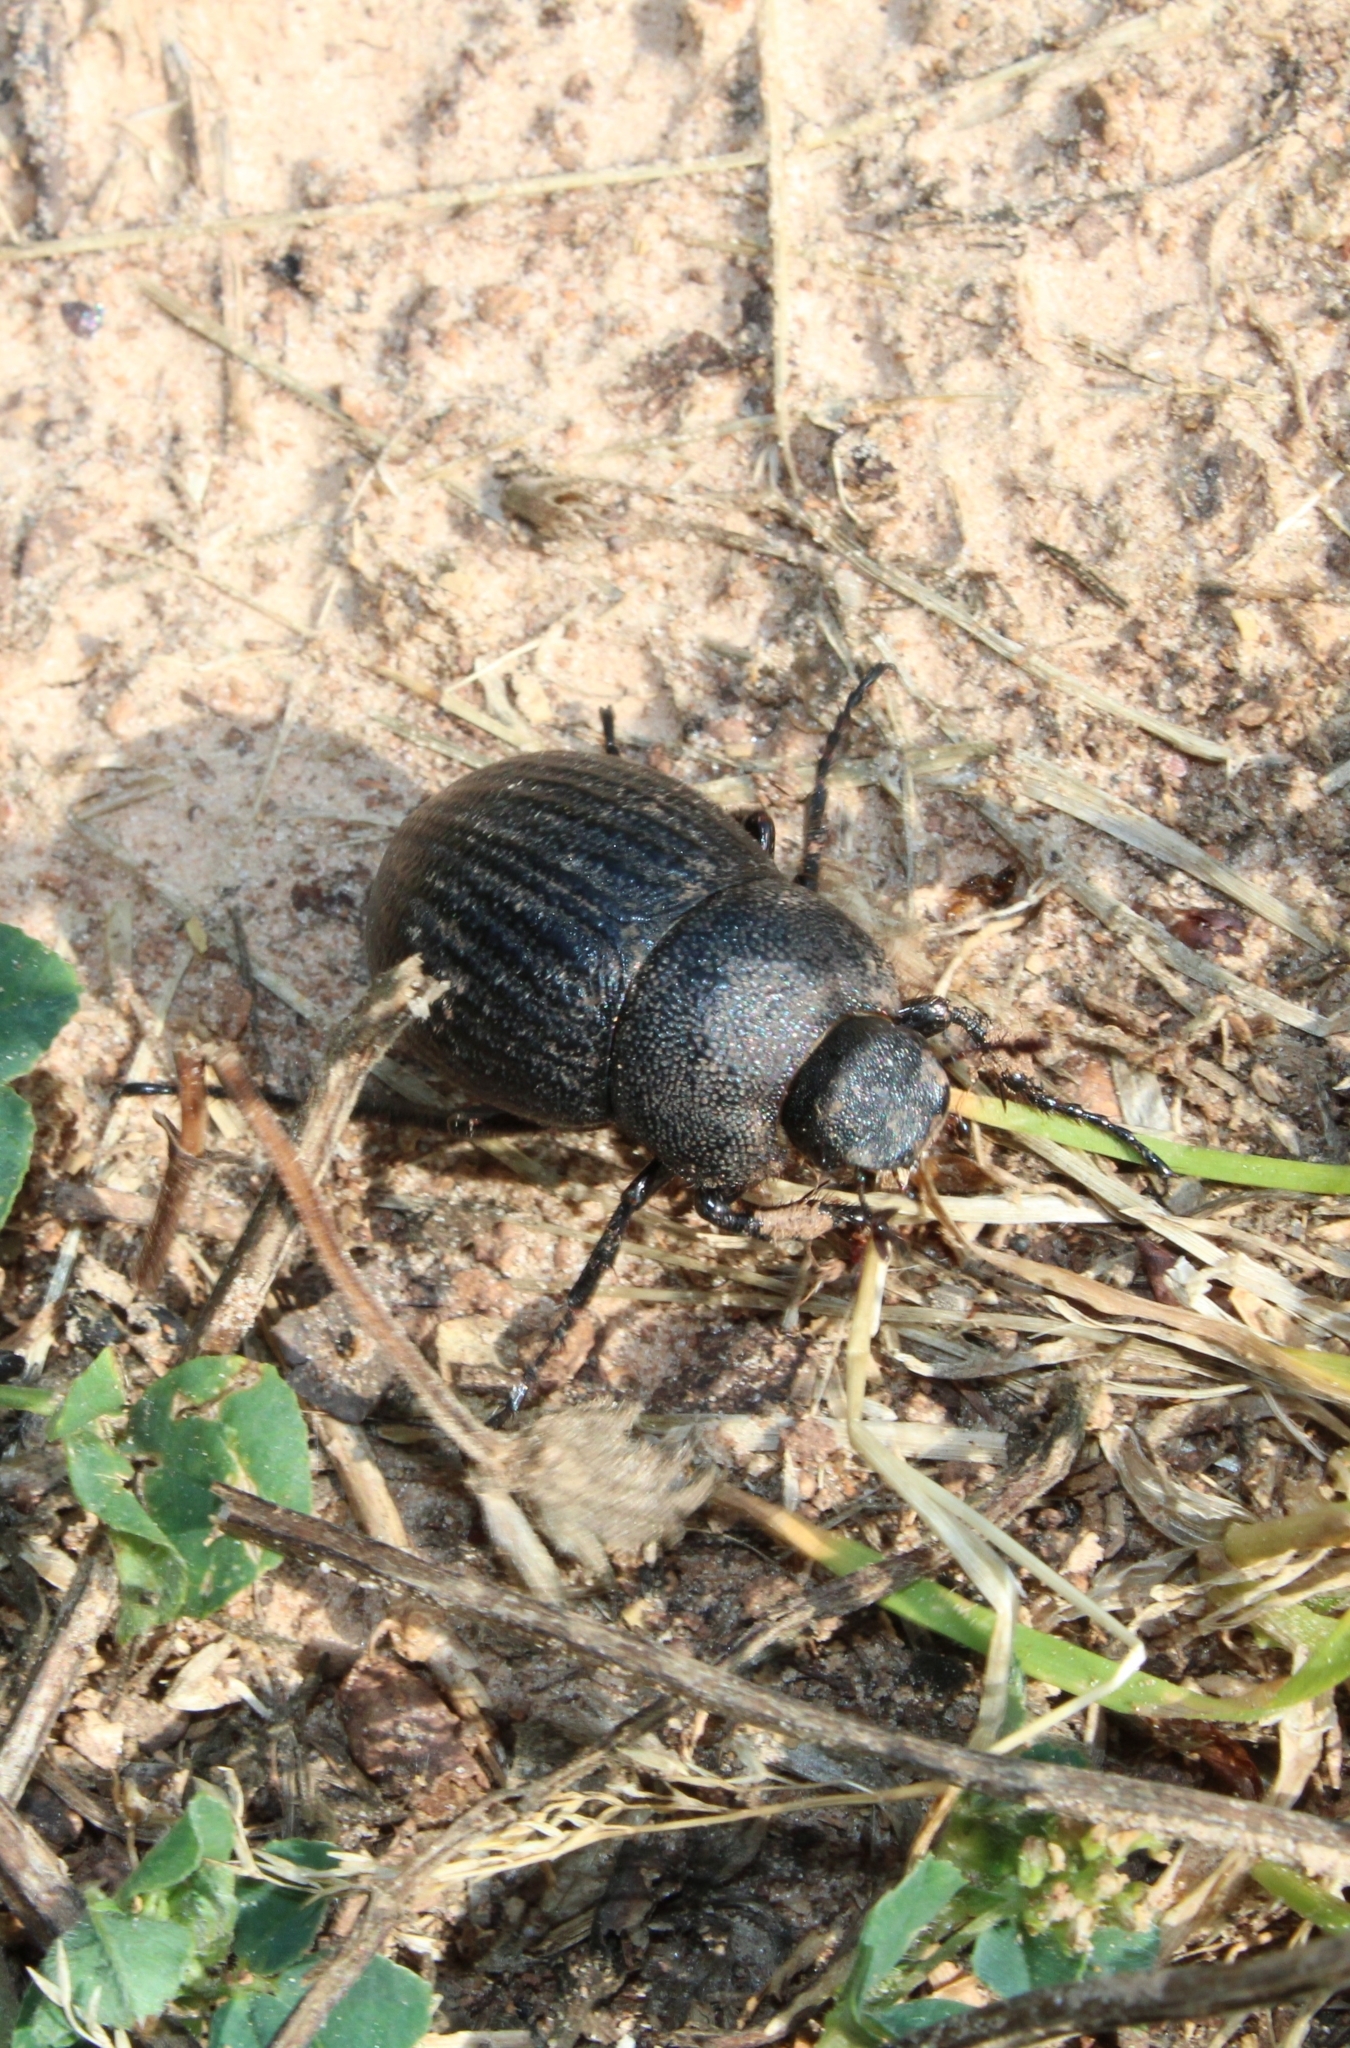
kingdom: Animalia
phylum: Arthropoda
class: Insecta
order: Coleoptera
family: Scarabaeidae
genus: Phyllophaga
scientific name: Phyllophaga cribrosa
